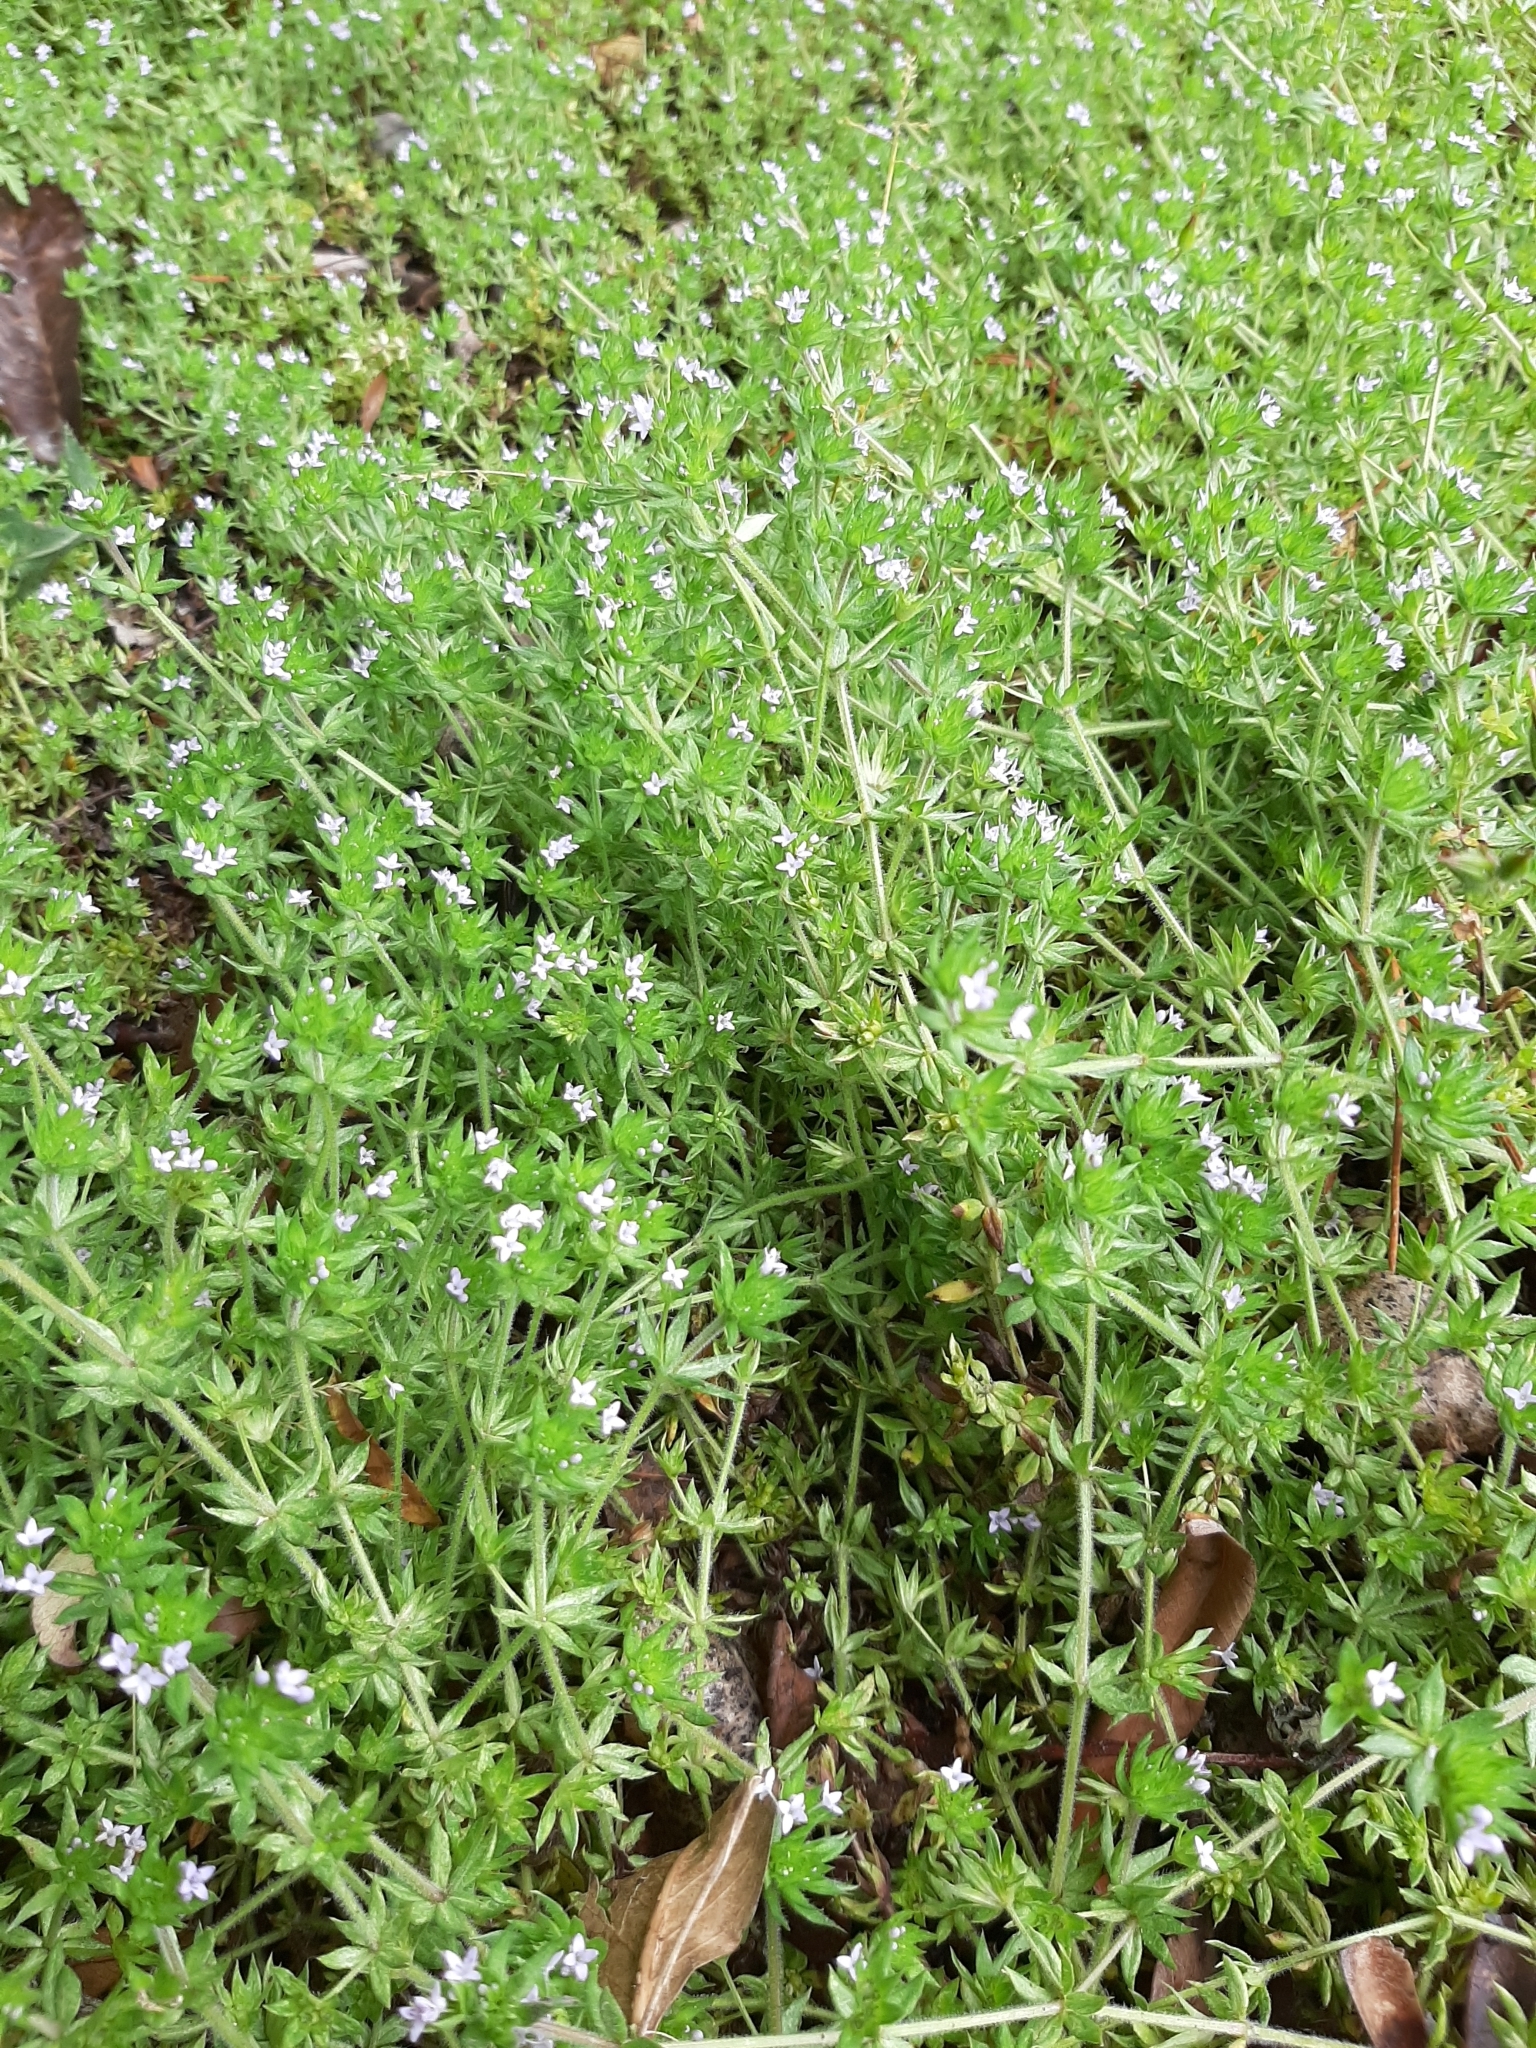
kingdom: Plantae
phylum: Tracheophyta
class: Magnoliopsida
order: Gentianales
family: Rubiaceae
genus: Sherardia
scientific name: Sherardia arvensis
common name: Field madder
